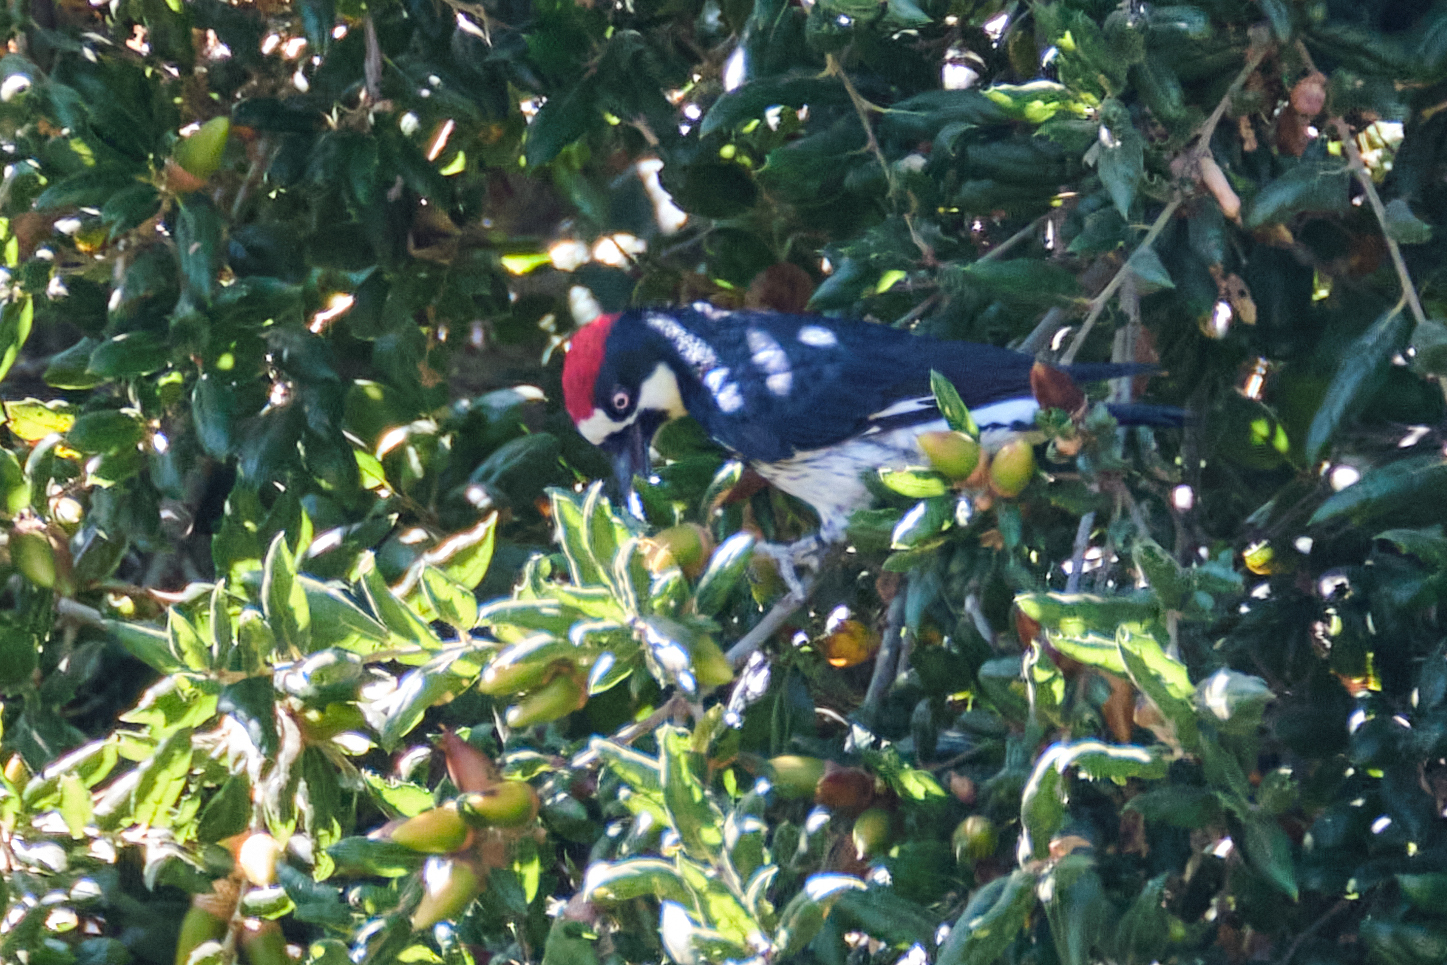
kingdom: Animalia
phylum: Chordata
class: Aves
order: Piciformes
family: Picidae
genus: Melanerpes
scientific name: Melanerpes formicivorus
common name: Acorn woodpecker
